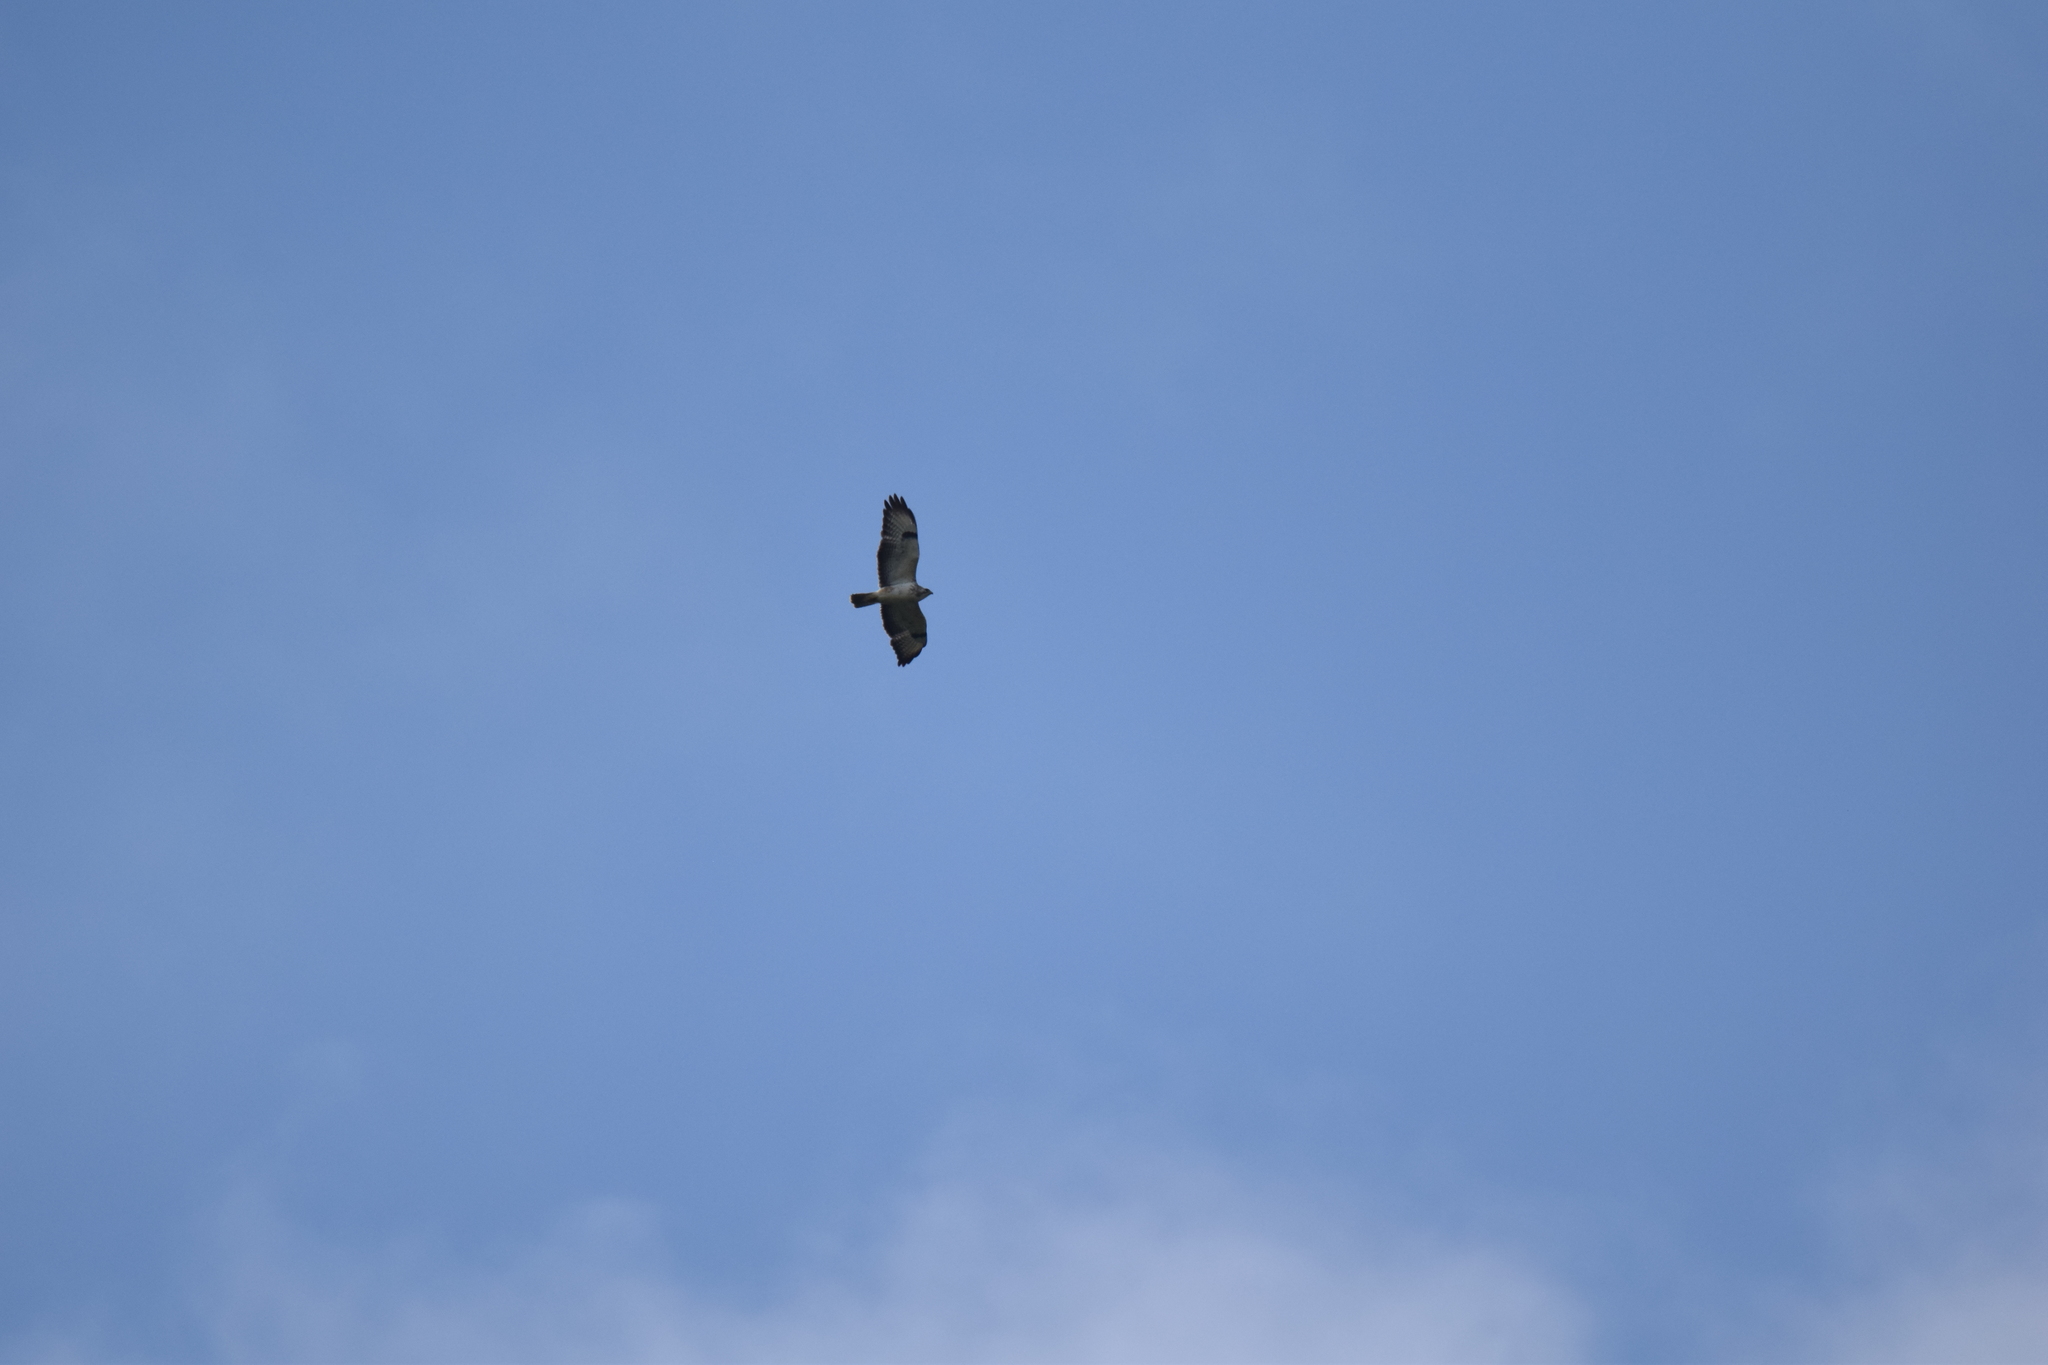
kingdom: Animalia
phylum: Chordata
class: Aves
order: Accipitriformes
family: Accipitridae
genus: Buteo
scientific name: Buteo buteo
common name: Common buzzard
